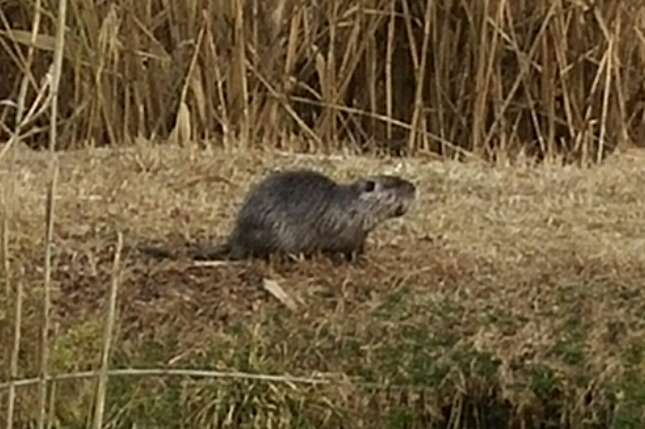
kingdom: Animalia
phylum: Chordata
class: Mammalia
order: Rodentia
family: Myocastoridae
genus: Myocastor
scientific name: Myocastor coypus
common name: Coypu
